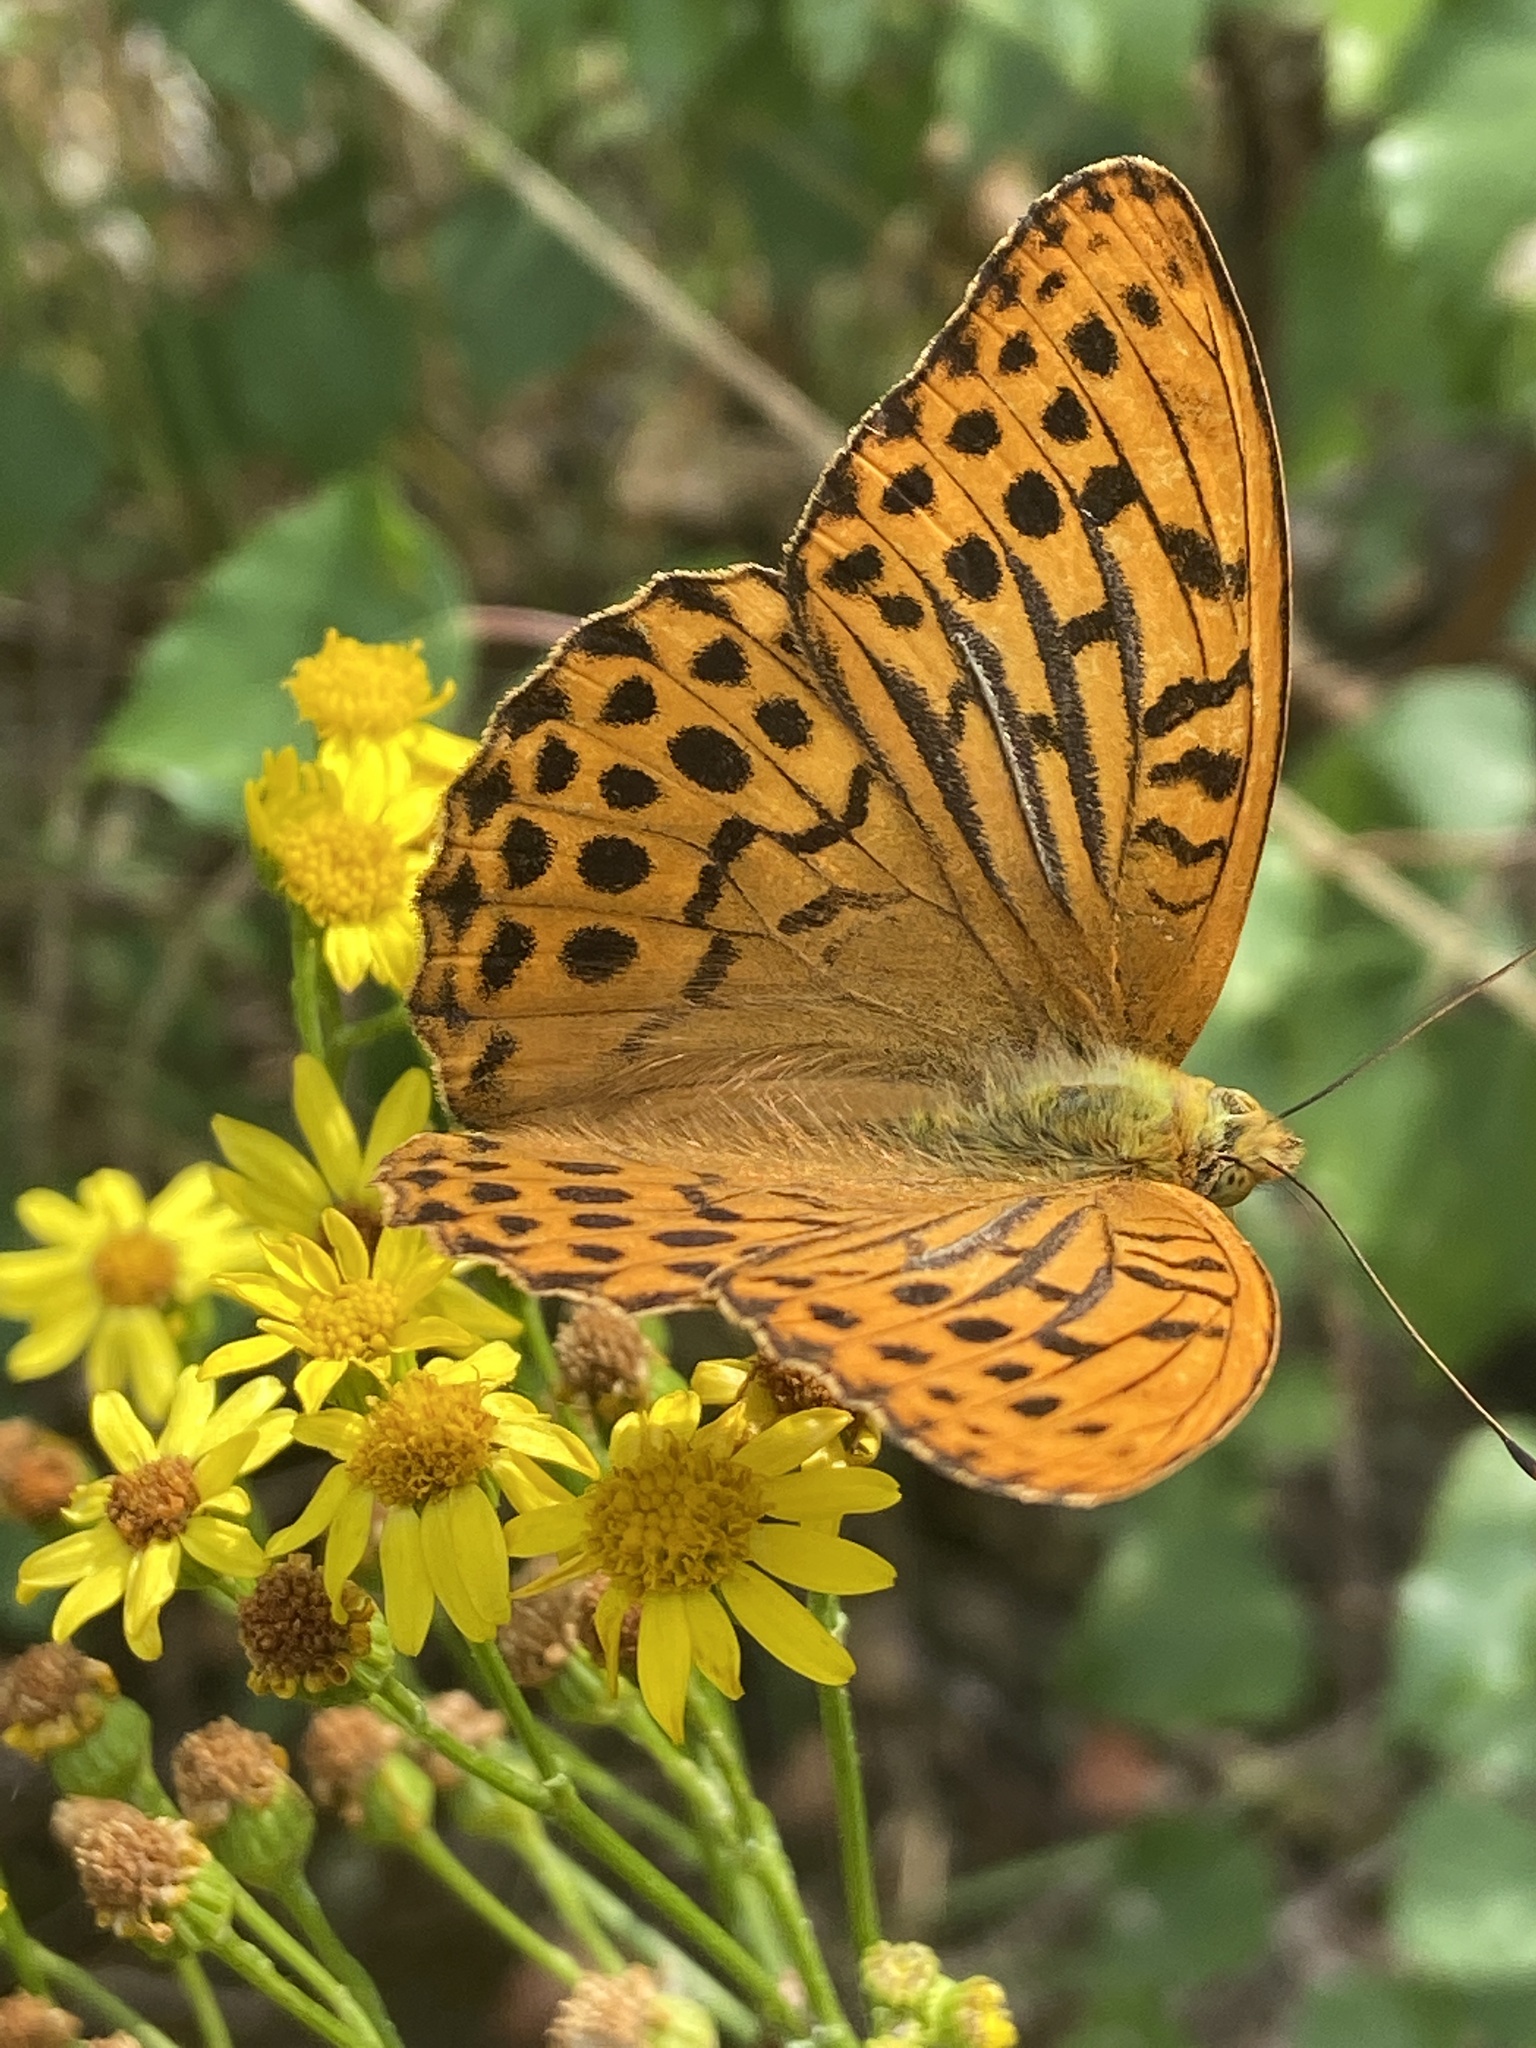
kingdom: Animalia
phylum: Arthropoda
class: Insecta
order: Lepidoptera
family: Nymphalidae
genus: Argynnis
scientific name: Argynnis paphia
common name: Silver-washed fritillary
